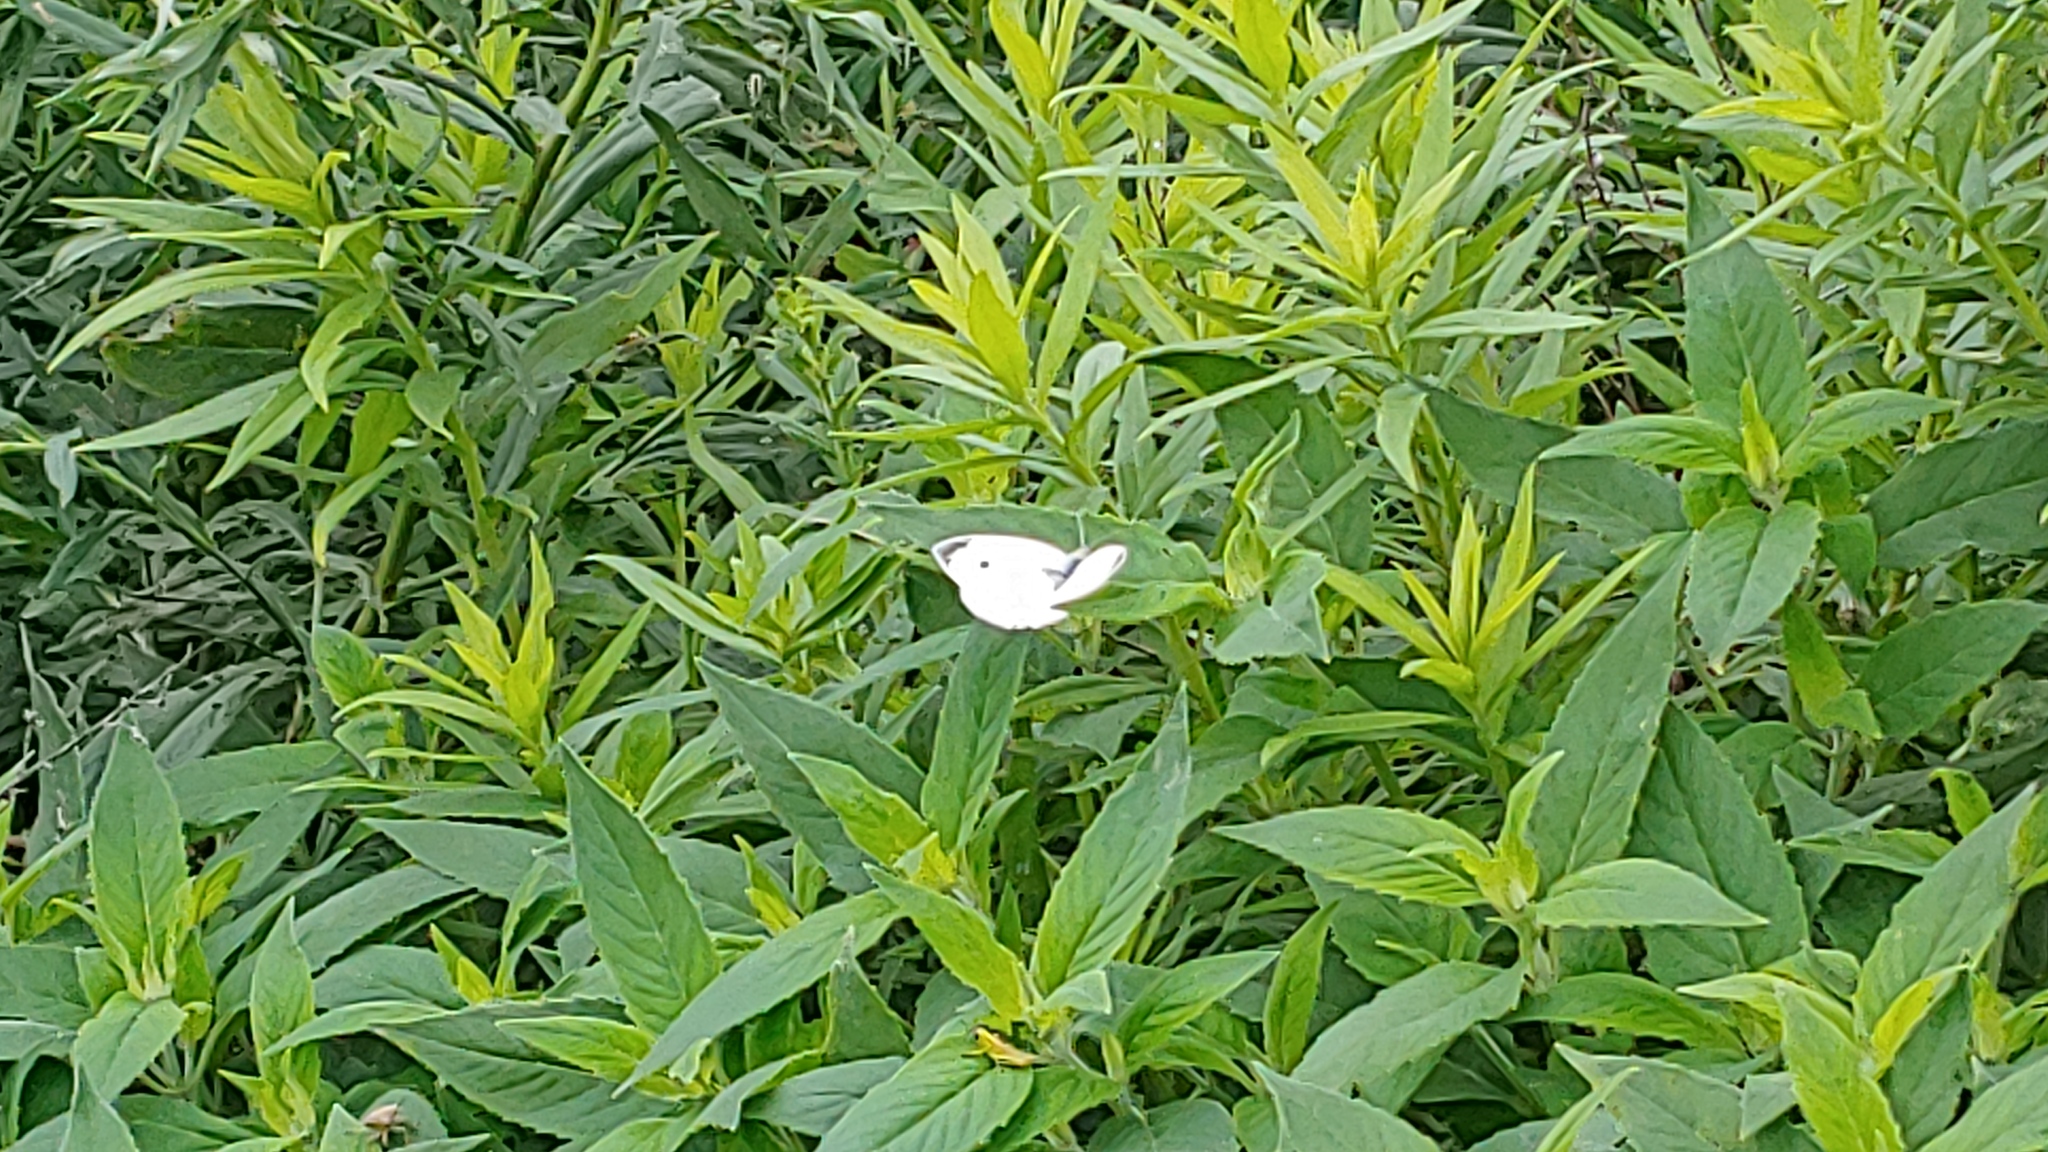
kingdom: Animalia
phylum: Arthropoda
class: Insecta
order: Lepidoptera
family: Pieridae
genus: Pieris
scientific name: Pieris rapae
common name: Small white
